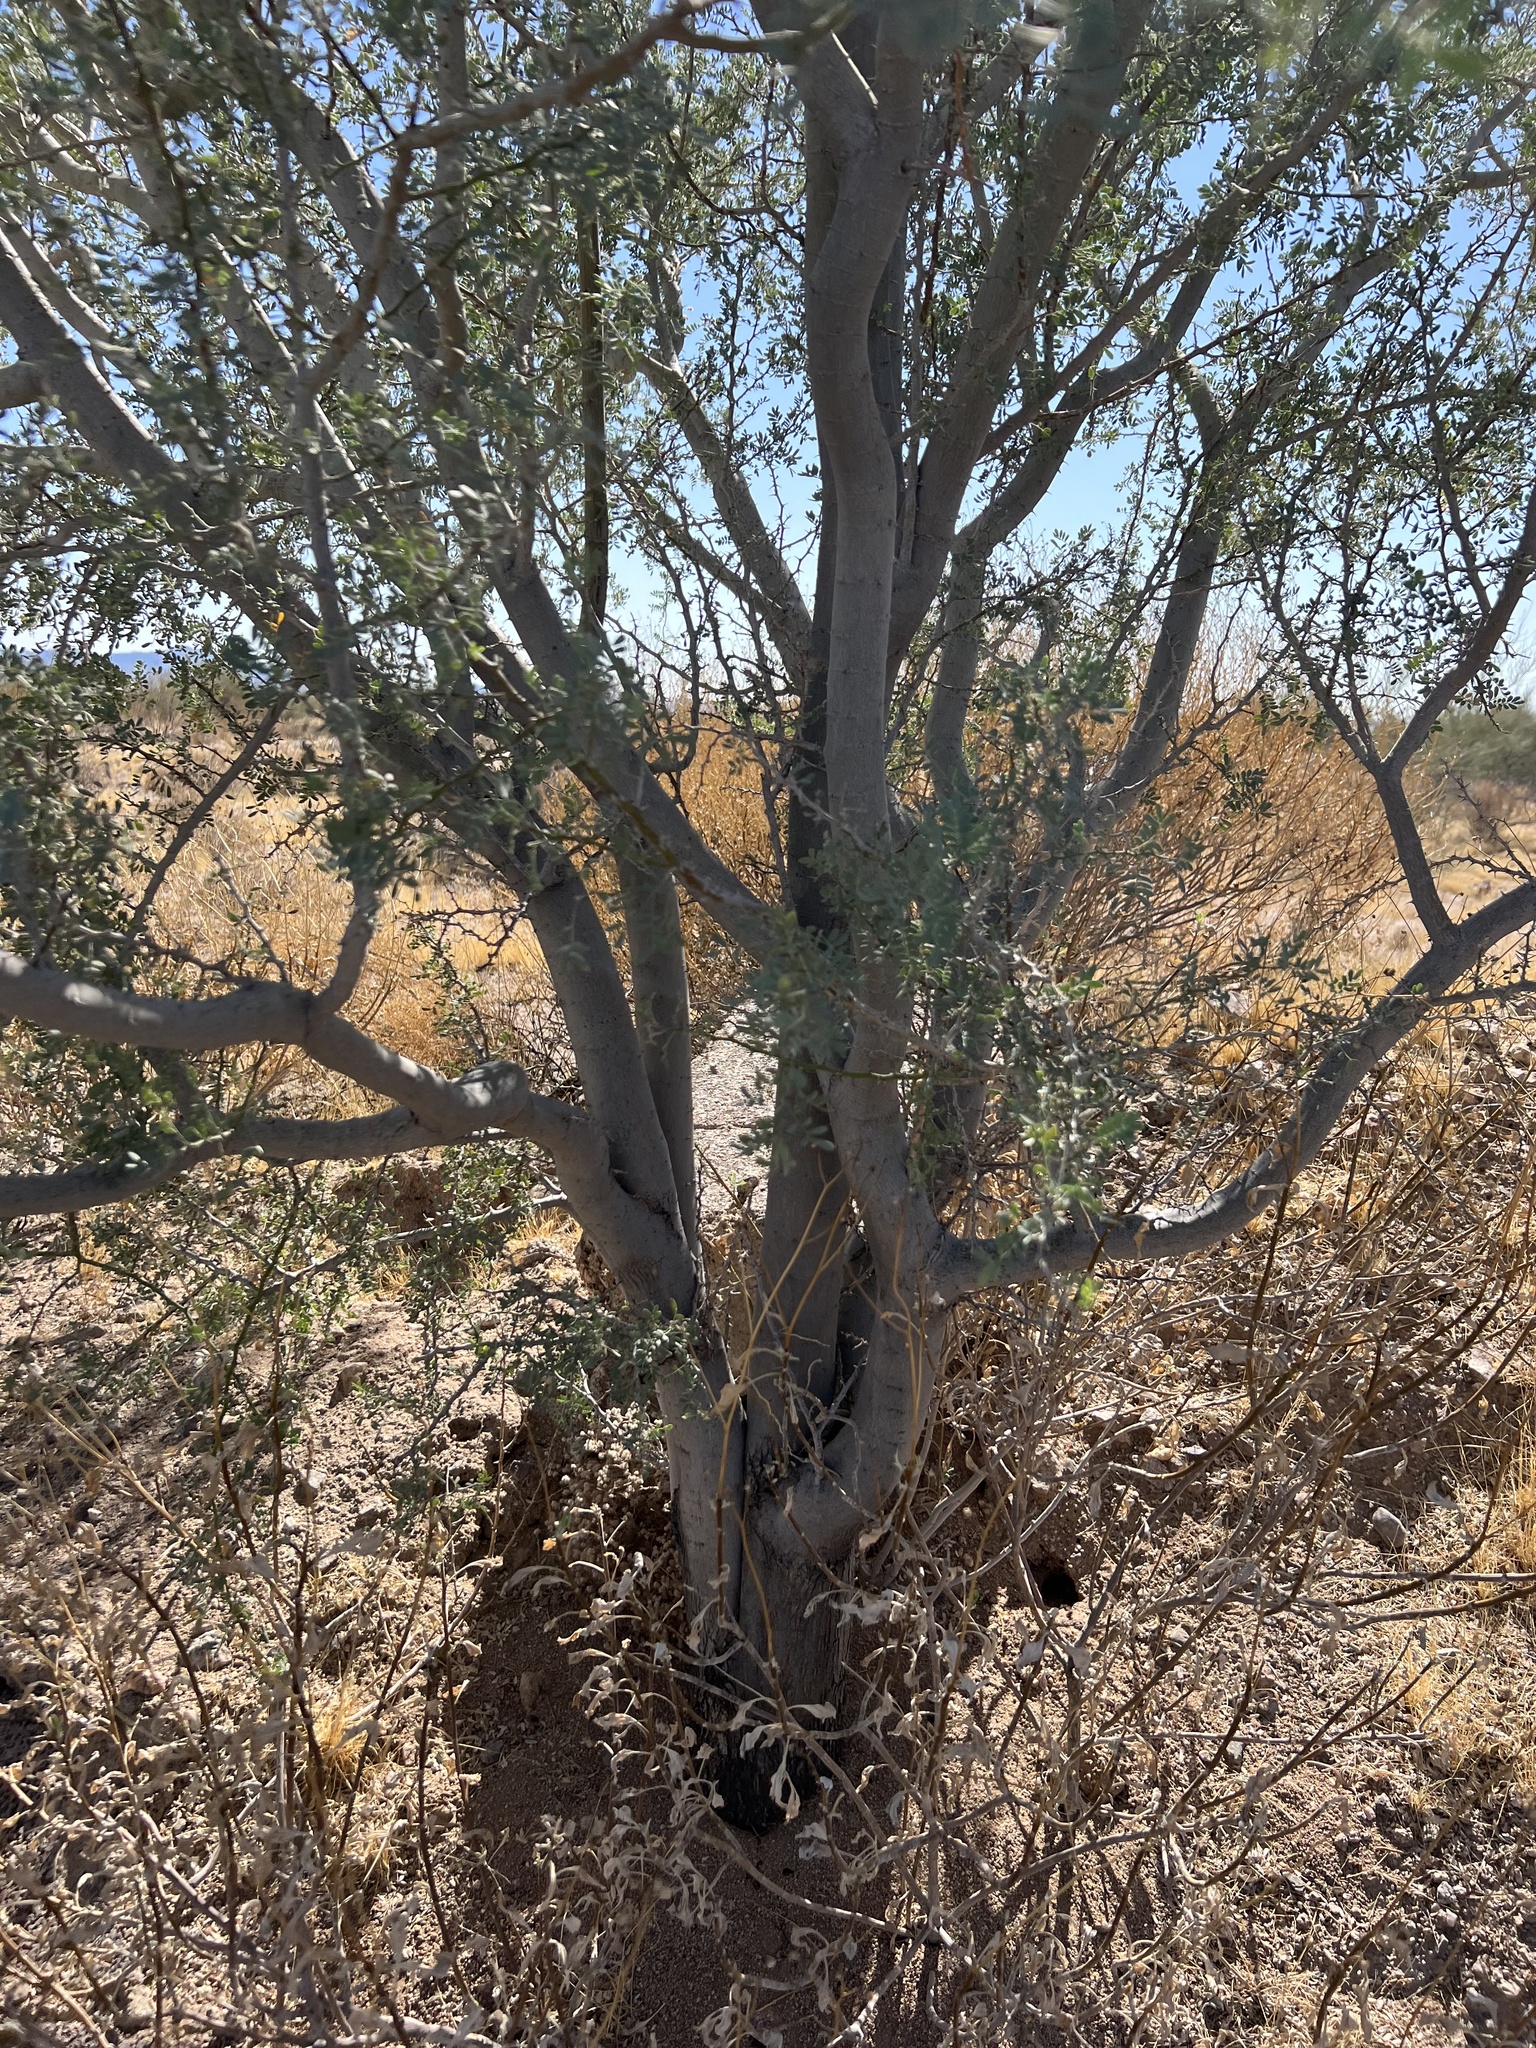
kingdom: Plantae
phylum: Tracheophyta
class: Magnoliopsida
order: Fabales
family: Fabaceae
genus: Olneya
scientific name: Olneya tesota
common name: Desert ironwood
